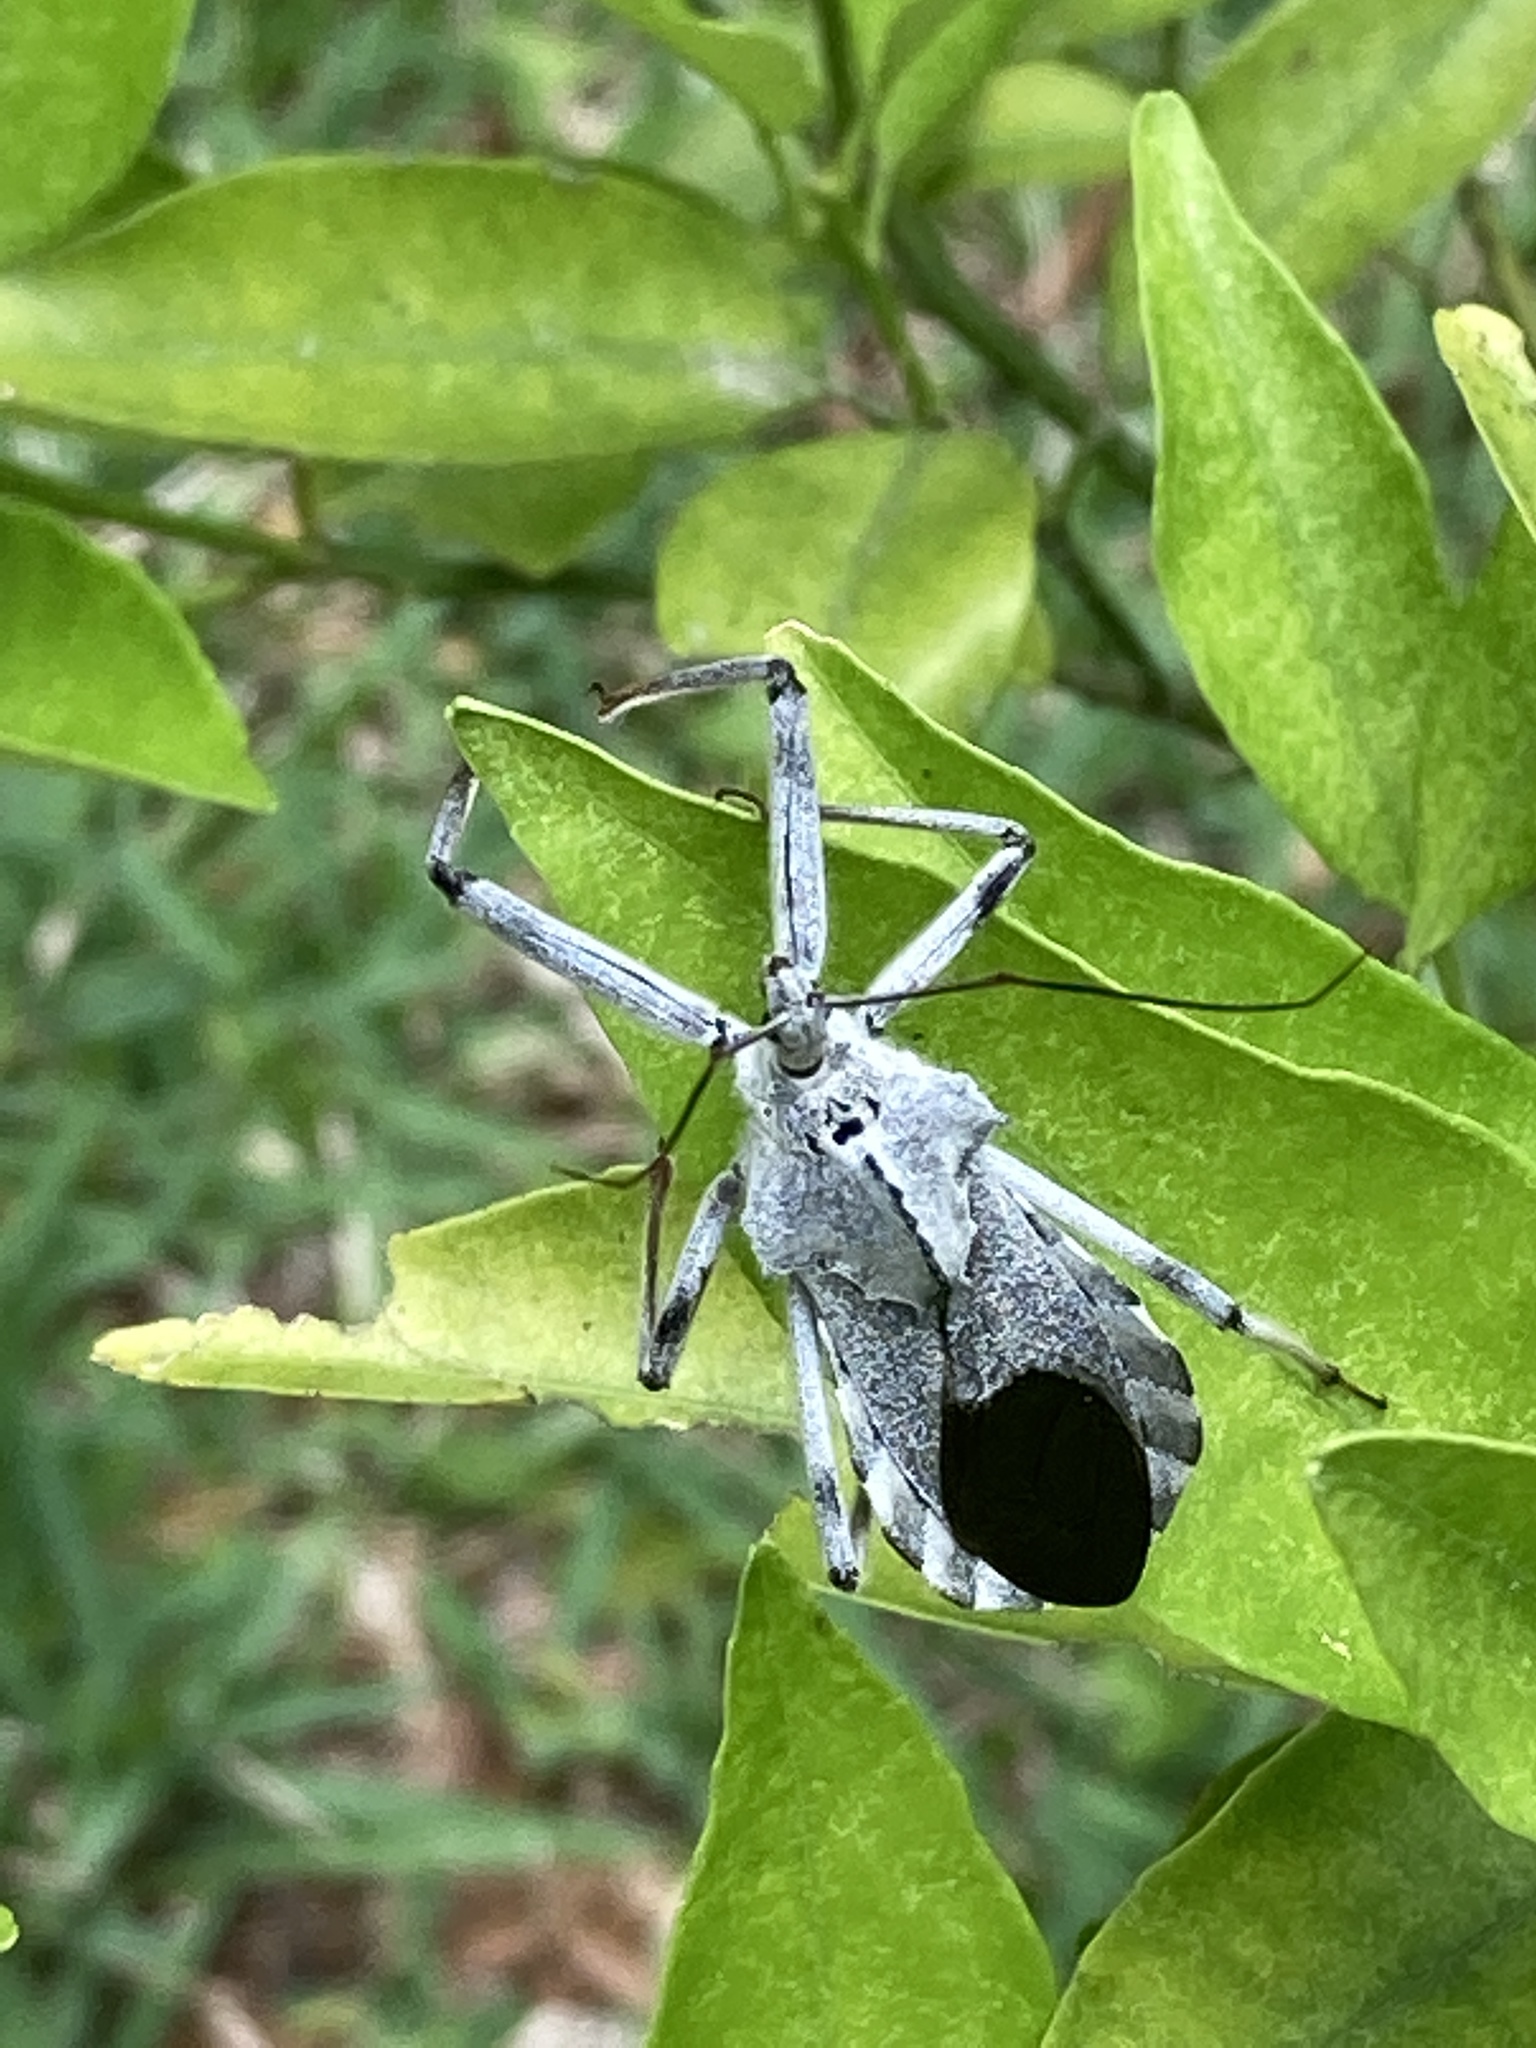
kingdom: Animalia
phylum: Arthropoda
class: Insecta
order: Hemiptera
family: Reduviidae
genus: Arilus
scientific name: Arilus cristatus
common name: North american wheel bug
